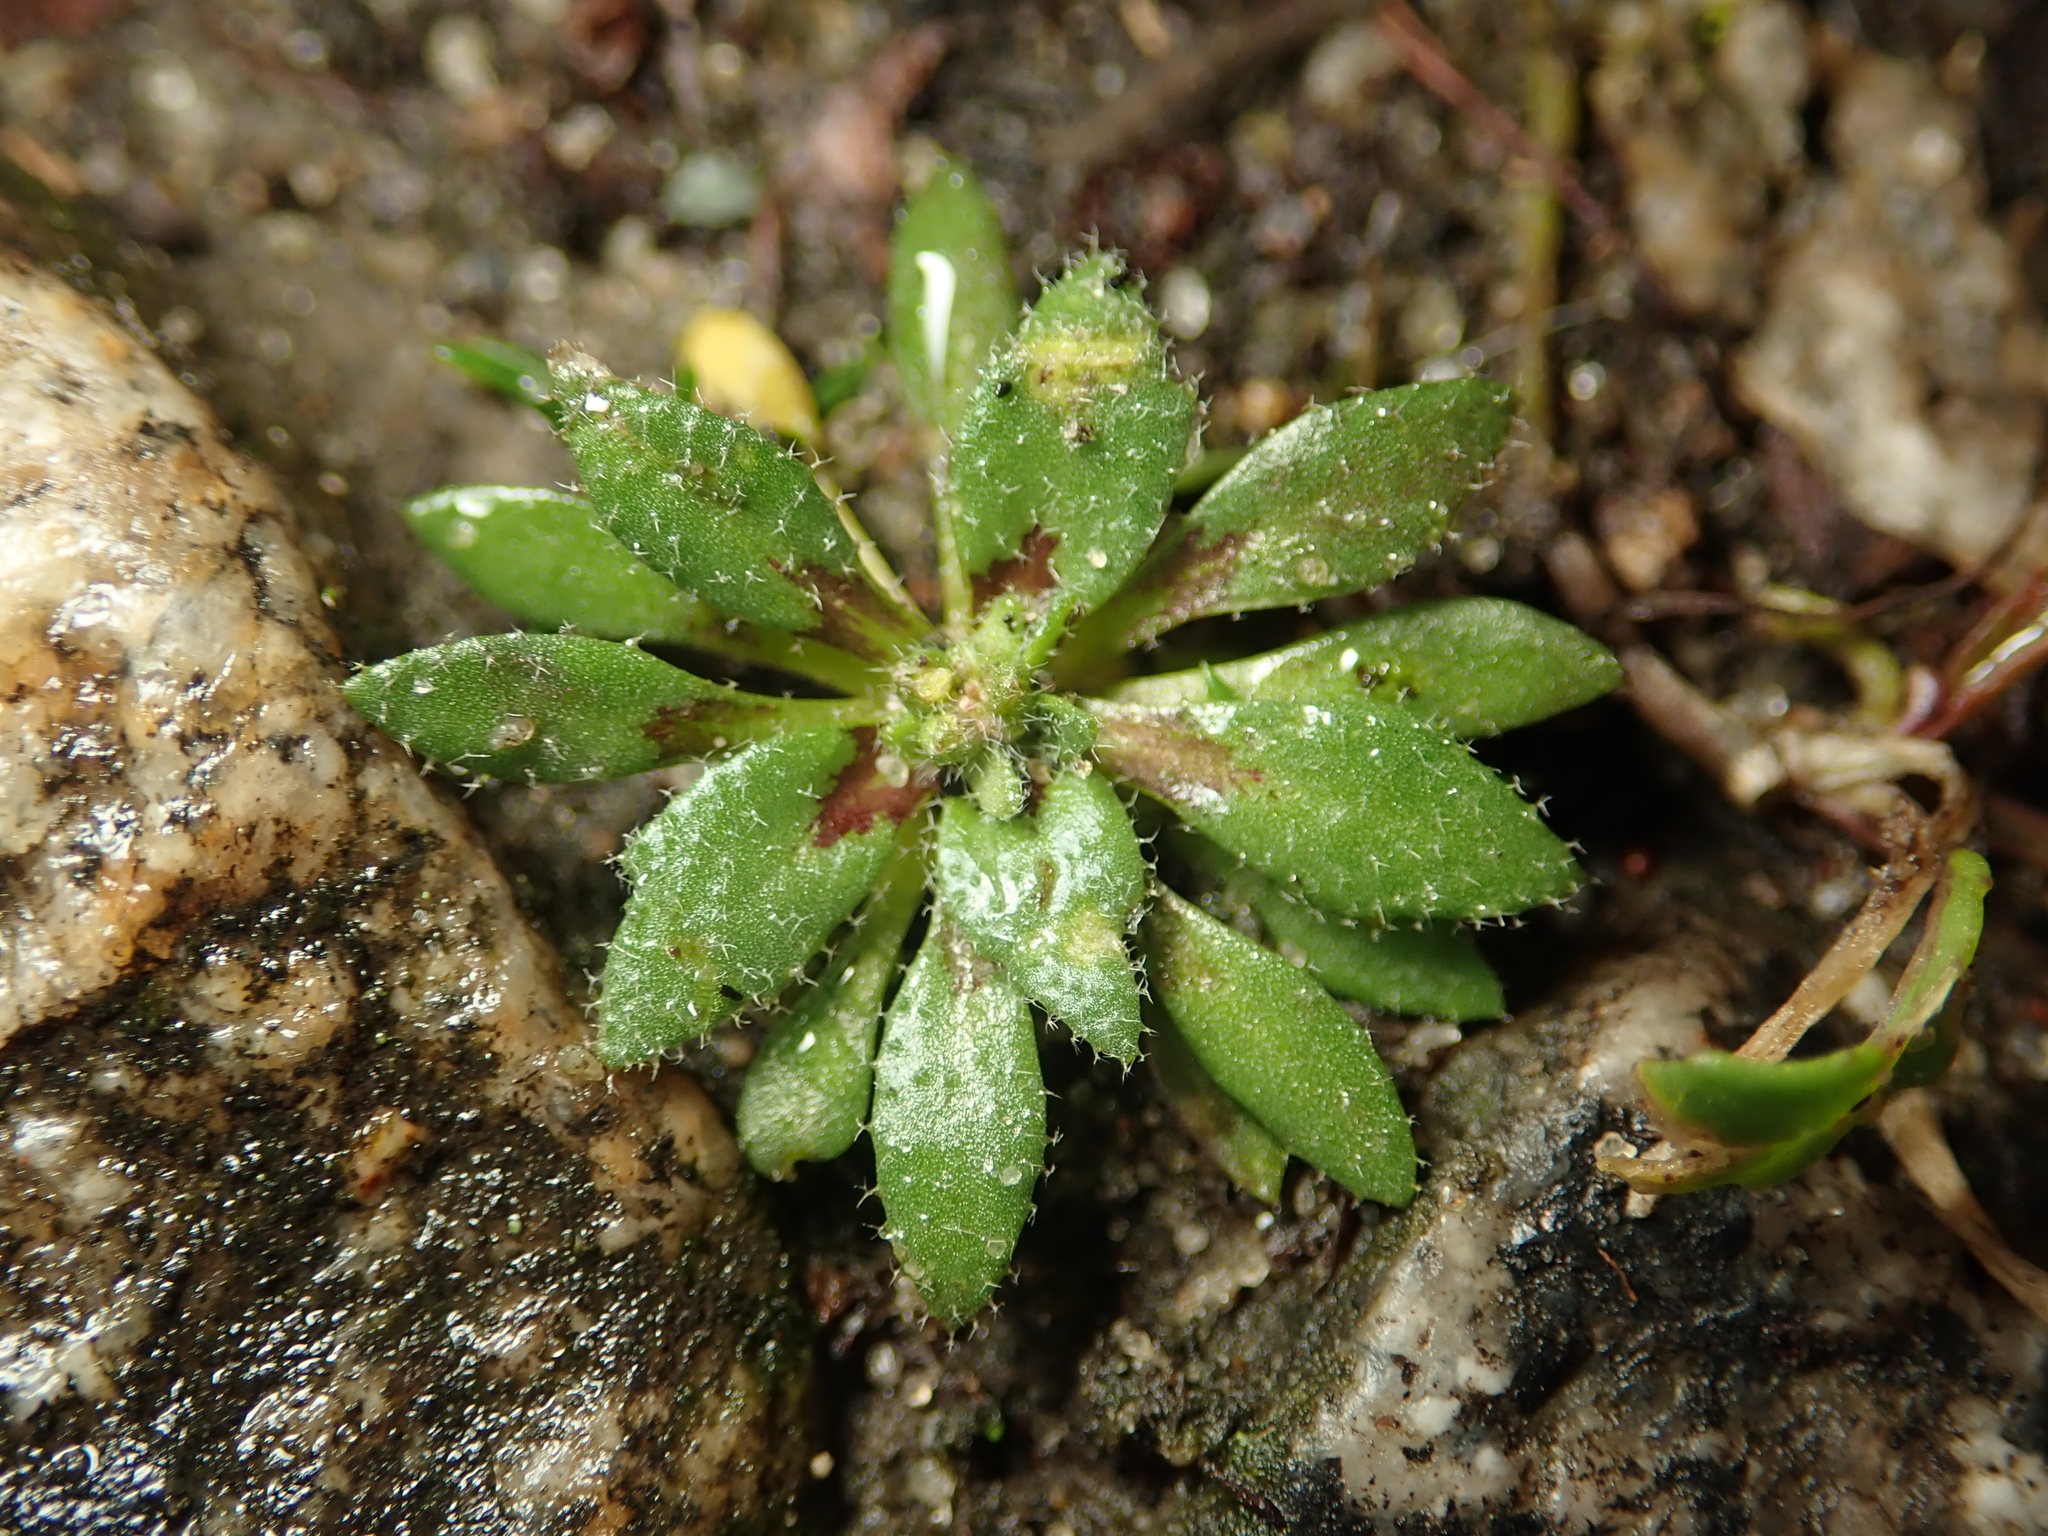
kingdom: Plantae
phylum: Tracheophyta
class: Magnoliopsida
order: Brassicales
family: Brassicaceae
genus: Draba
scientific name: Draba verna
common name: Spring draba
